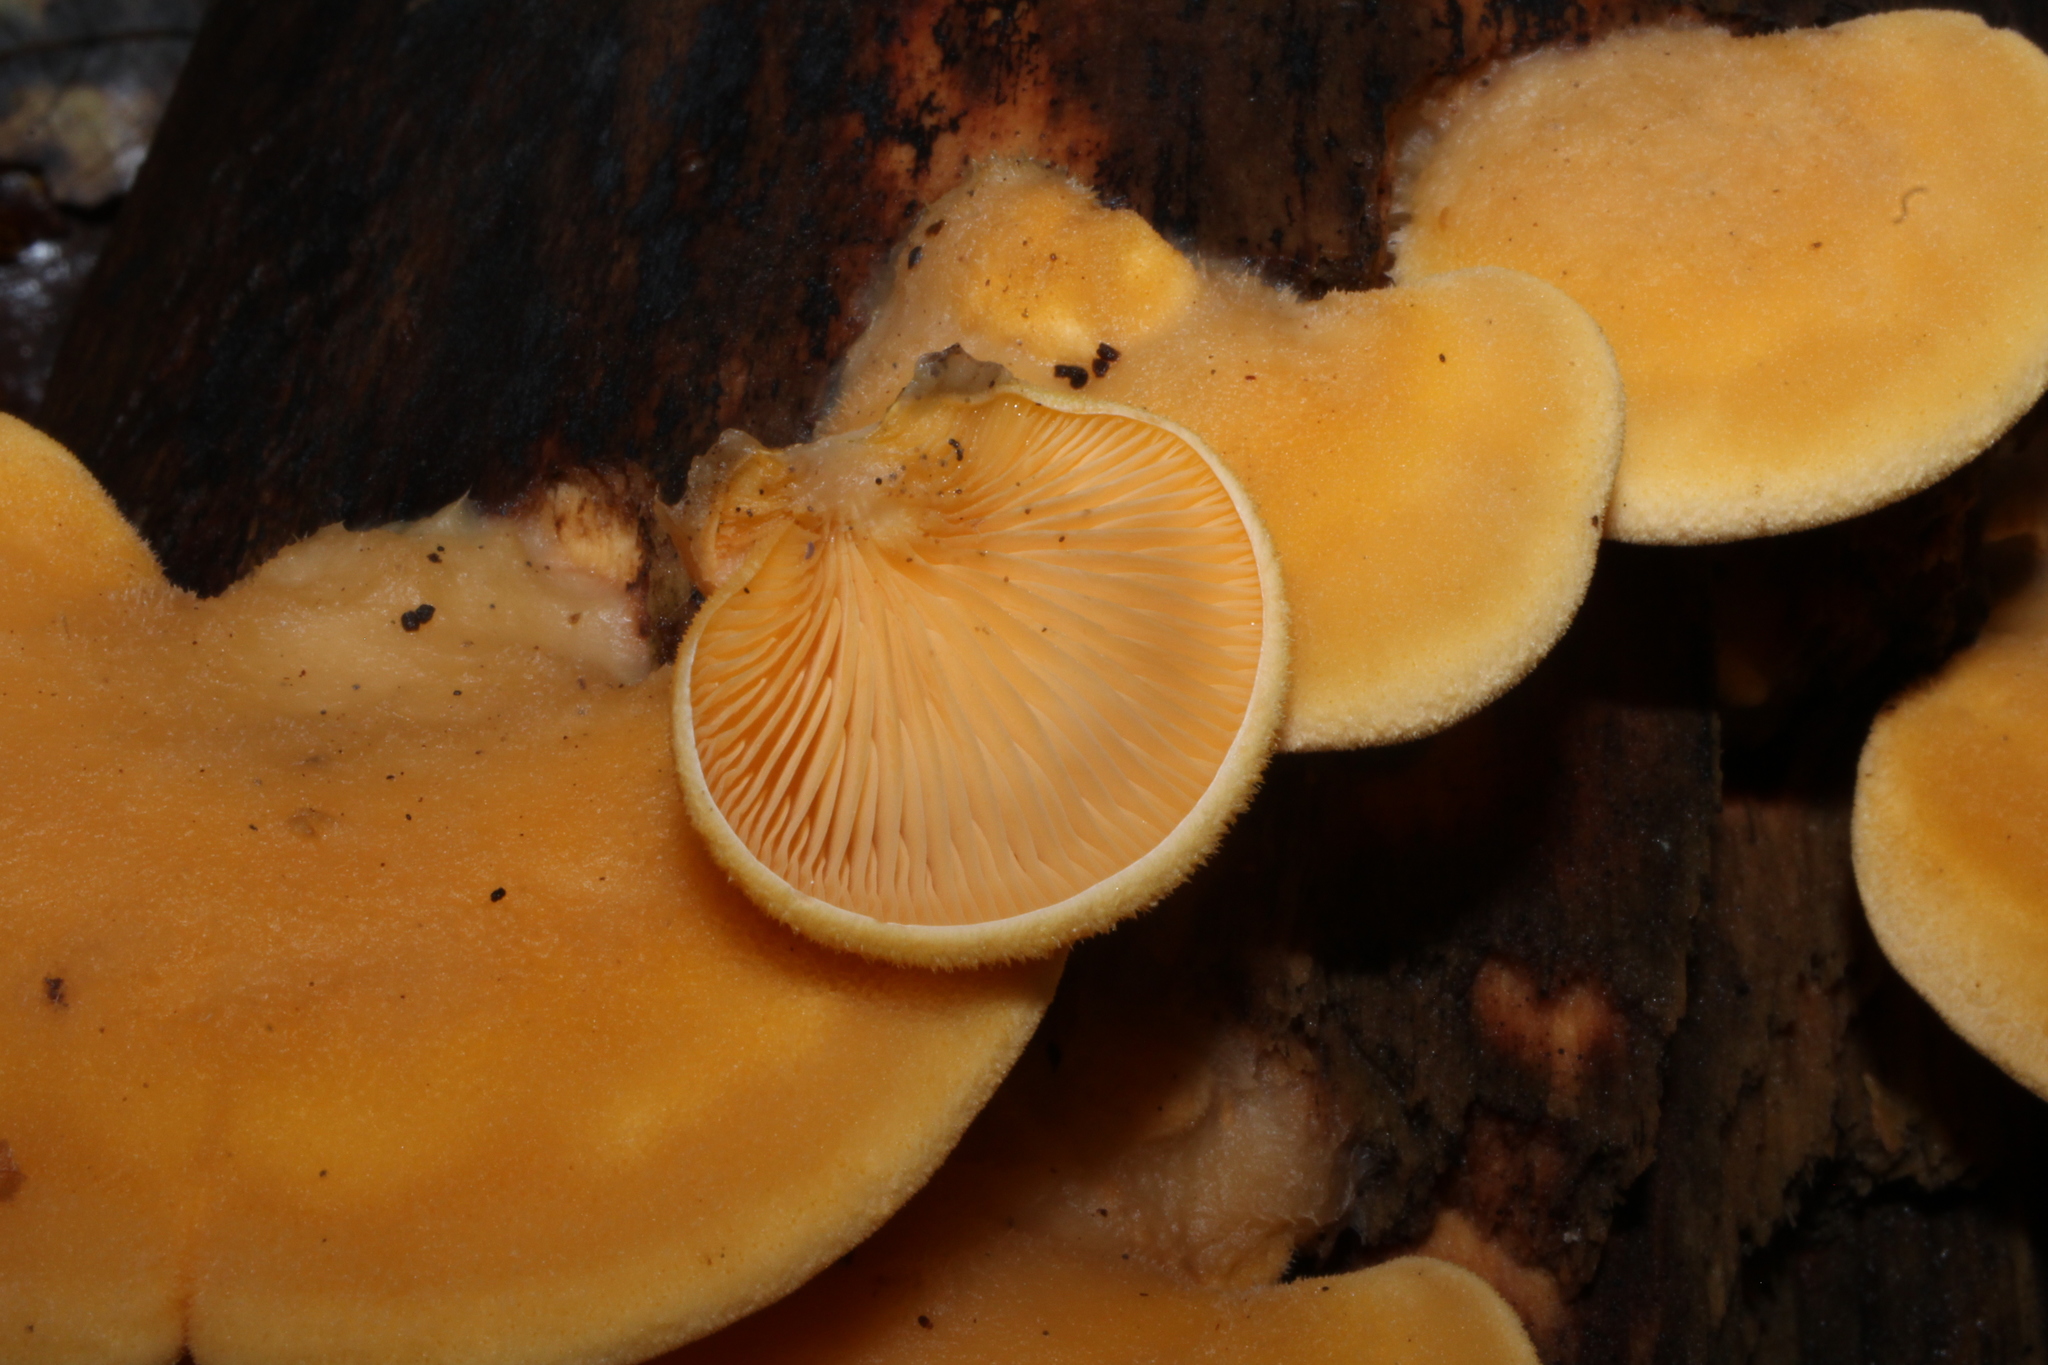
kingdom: Fungi
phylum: Basidiomycota
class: Agaricomycetes
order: Agaricales
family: Phyllotopsidaceae
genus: Phyllotopsis
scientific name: Phyllotopsis nidulans
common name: Orange mock oyster
